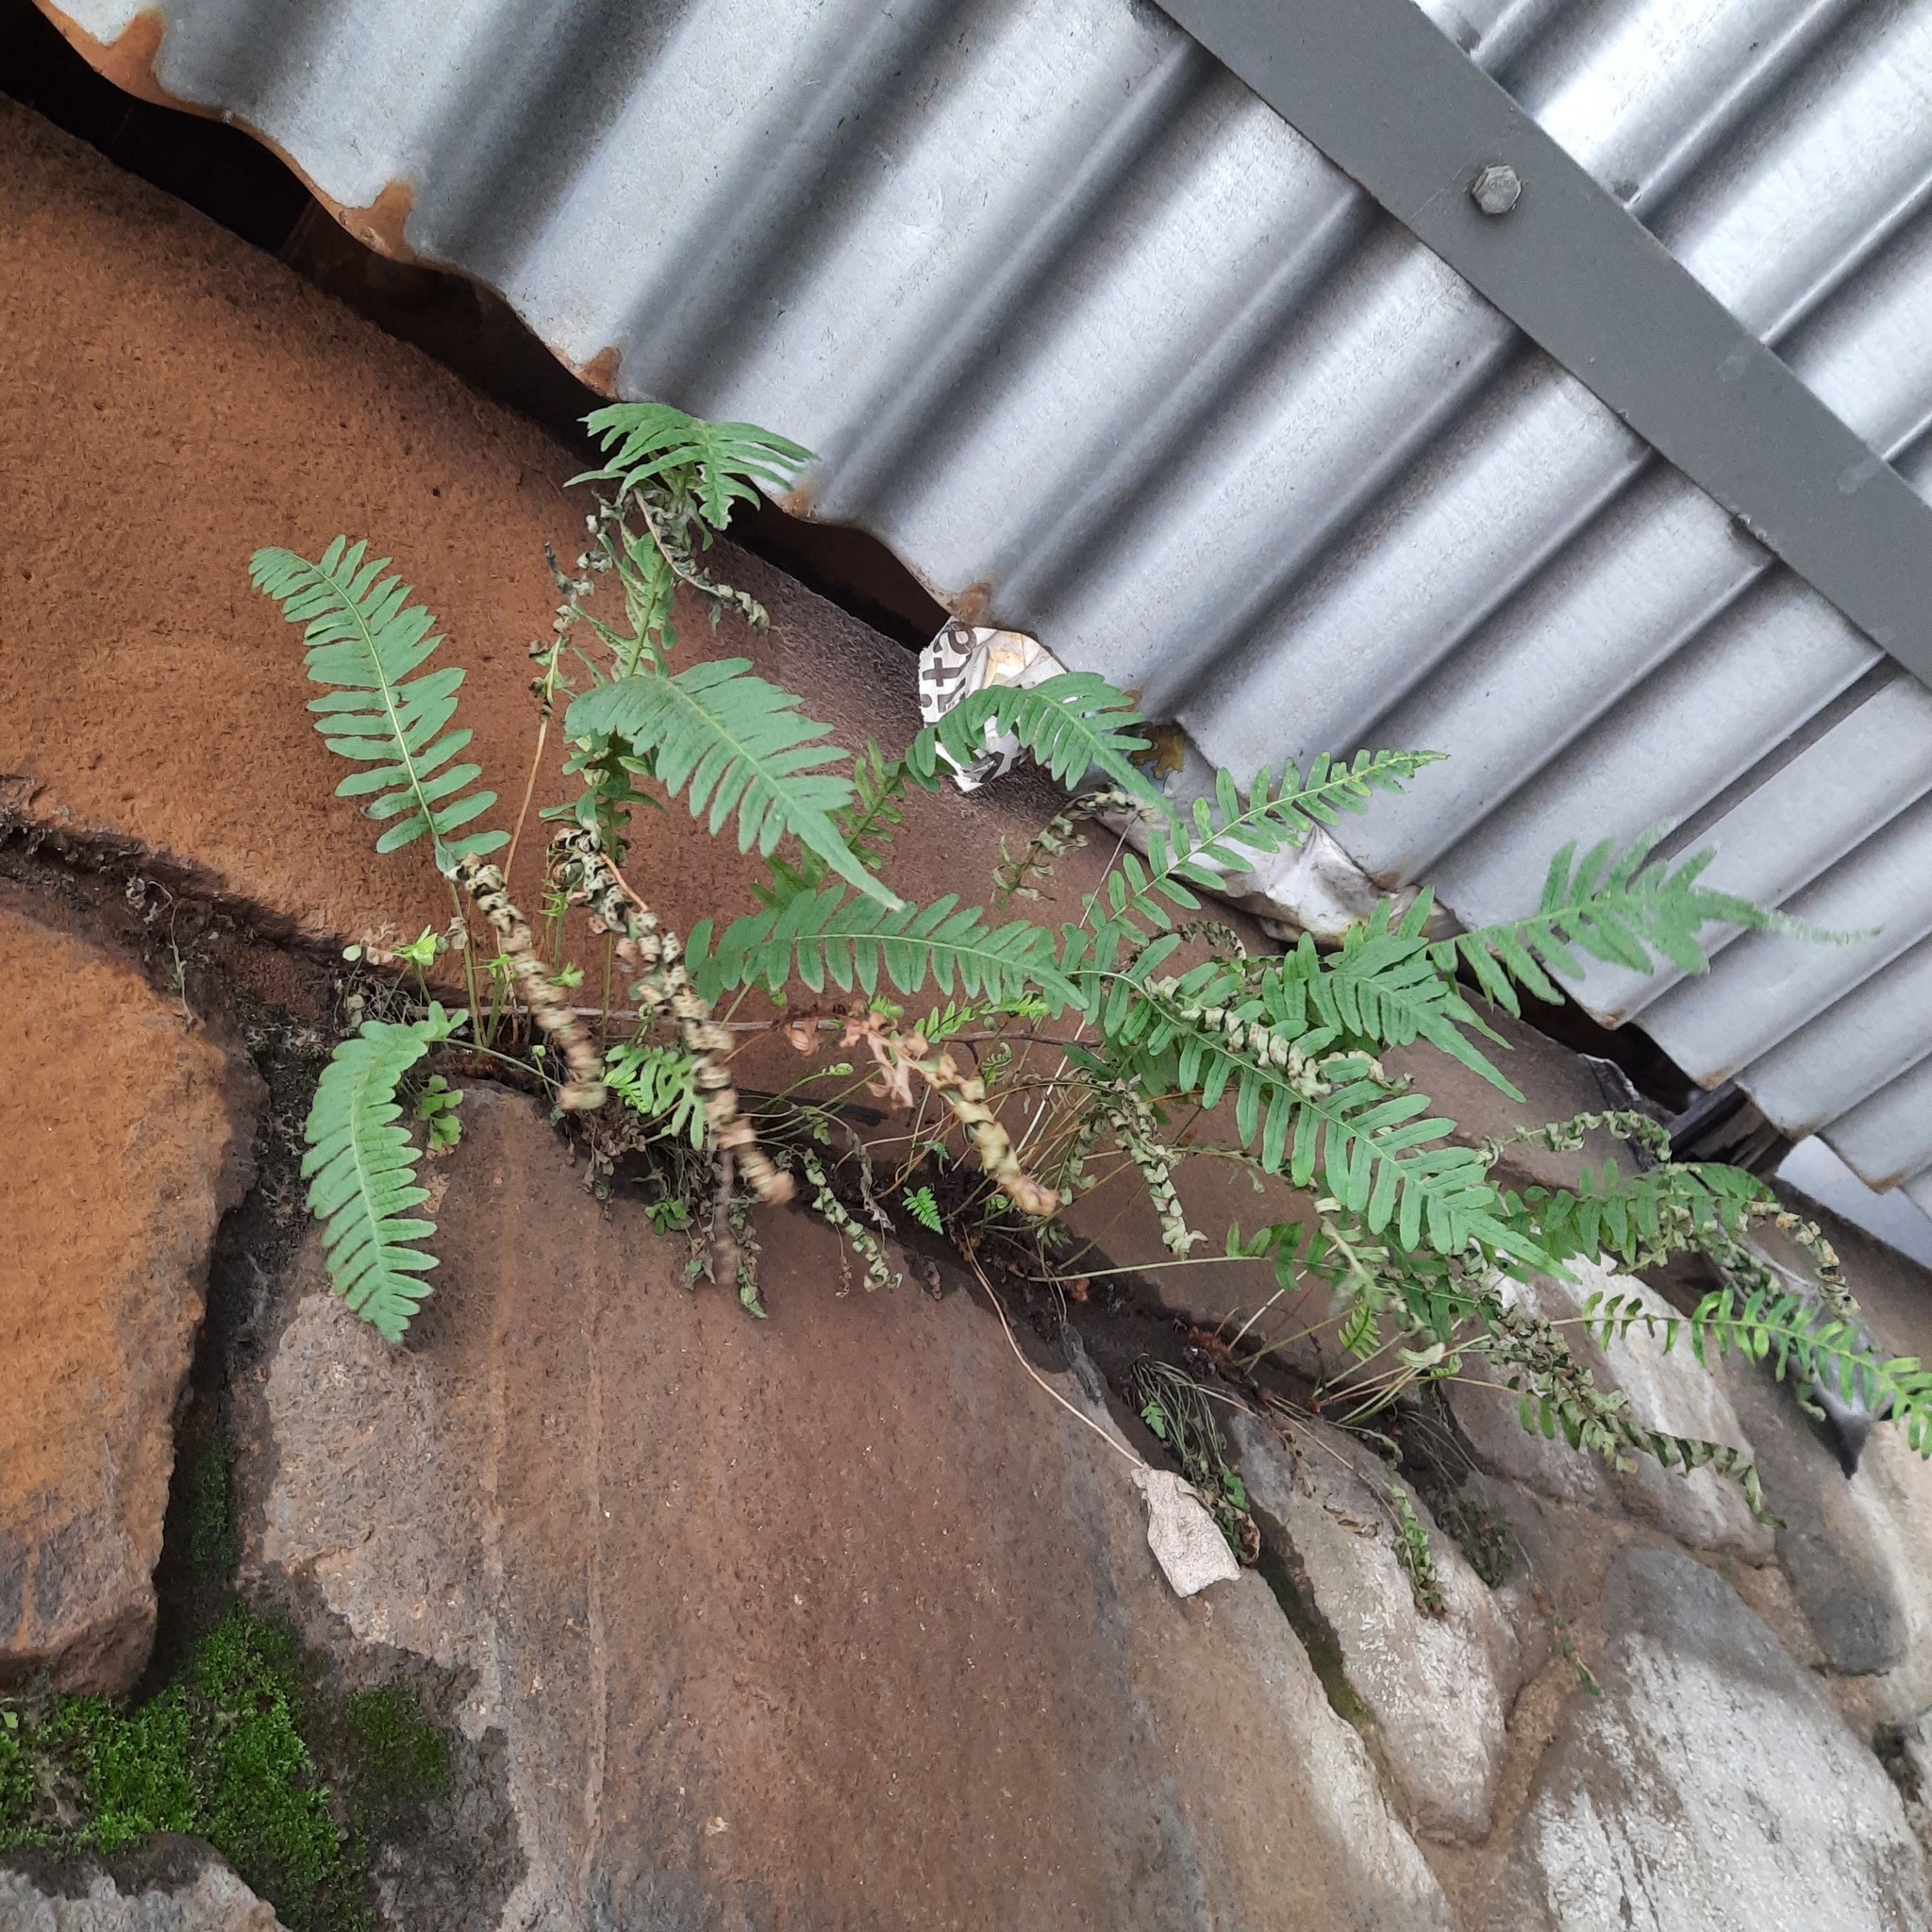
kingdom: Plantae
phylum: Tracheophyta
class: Polypodiopsida
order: Polypodiales
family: Polypodiaceae
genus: Polypodium
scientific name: Polypodium vulgare
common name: Common polypody
